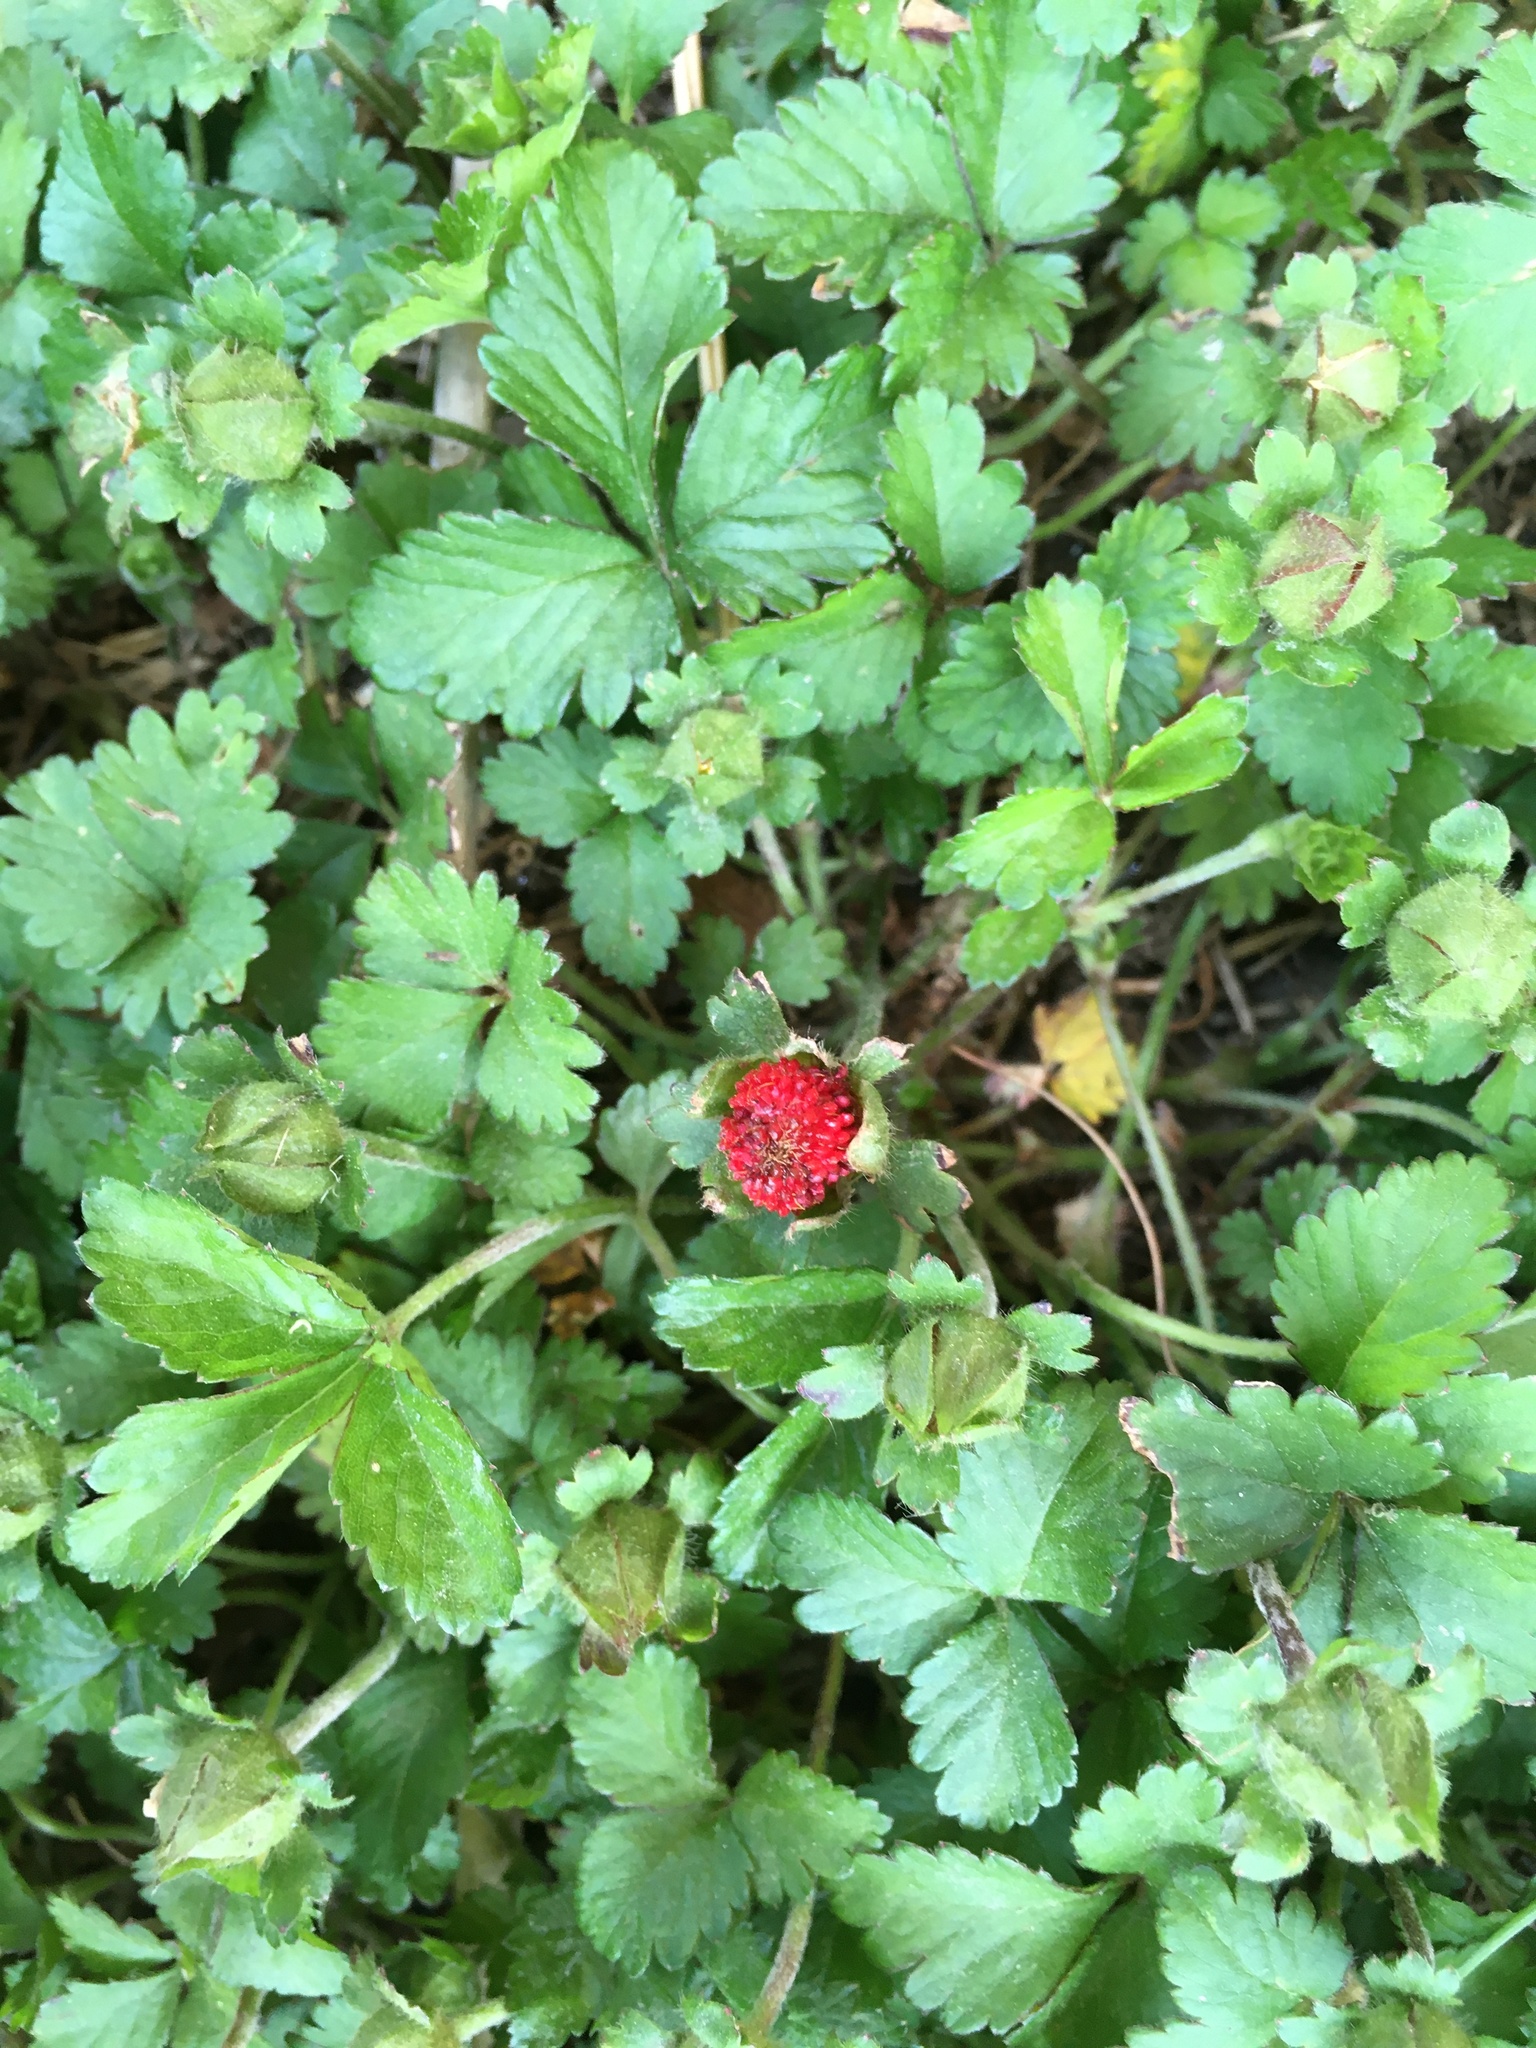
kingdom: Plantae
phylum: Tracheophyta
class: Magnoliopsida
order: Rosales
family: Rosaceae
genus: Potentilla
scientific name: Potentilla indica
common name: Yellow-flowered strawberry
